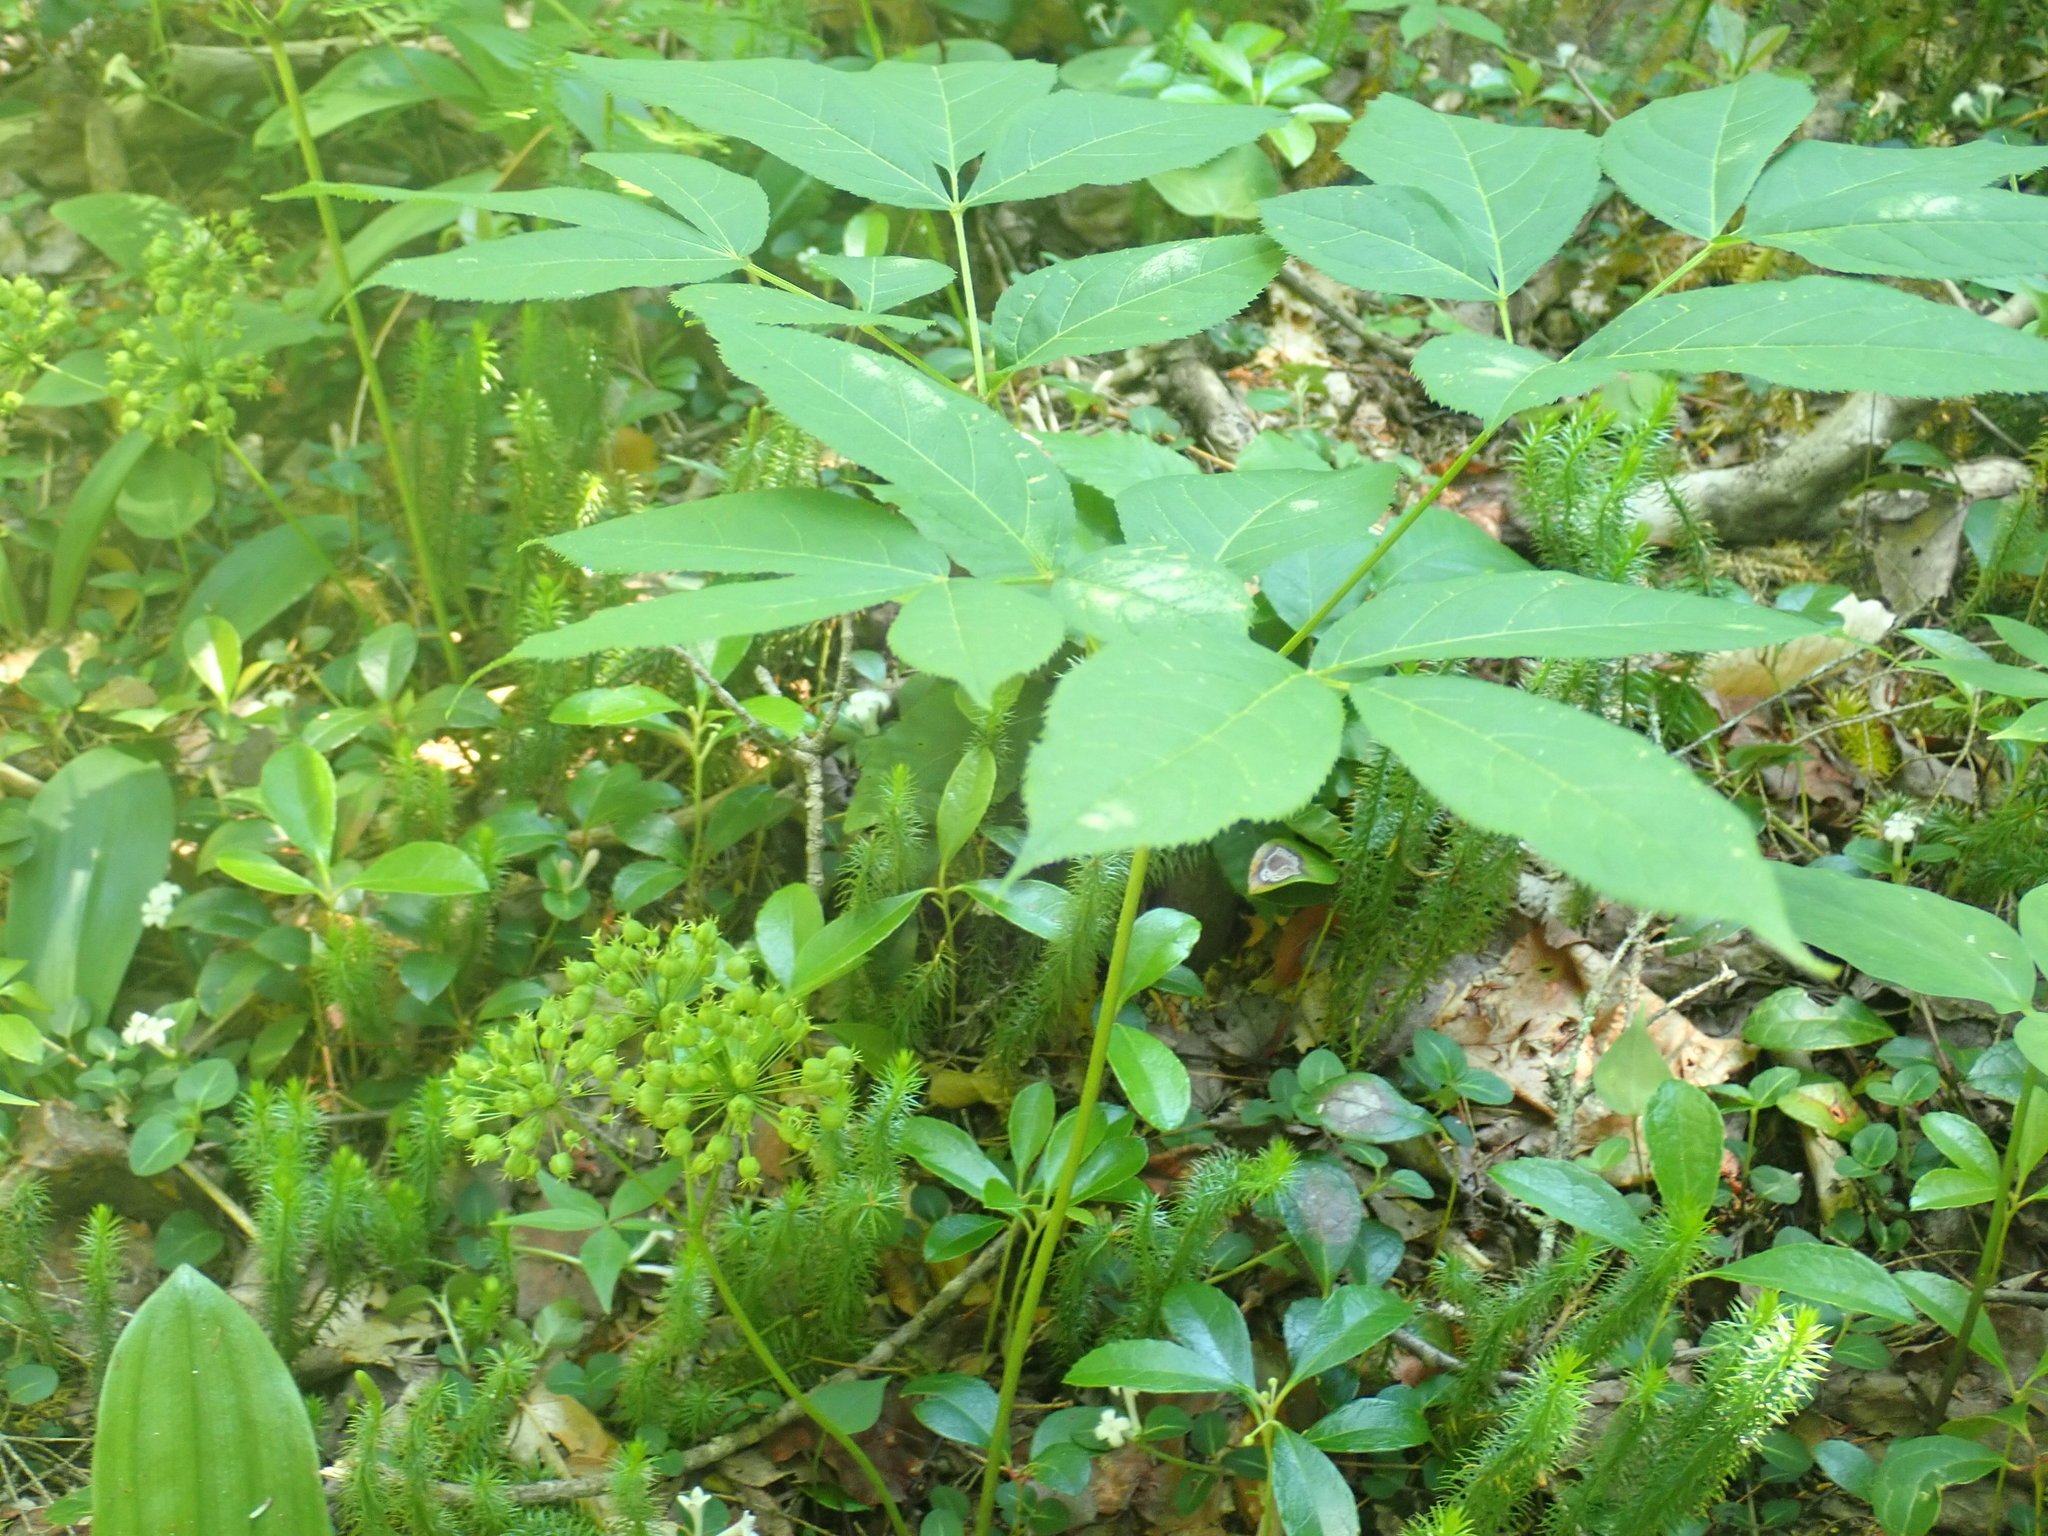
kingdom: Plantae
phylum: Tracheophyta
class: Magnoliopsida
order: Apiales
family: Araliaceae
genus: Aralia
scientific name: Aralia nudicaulis
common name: Wild sarsaparilla
